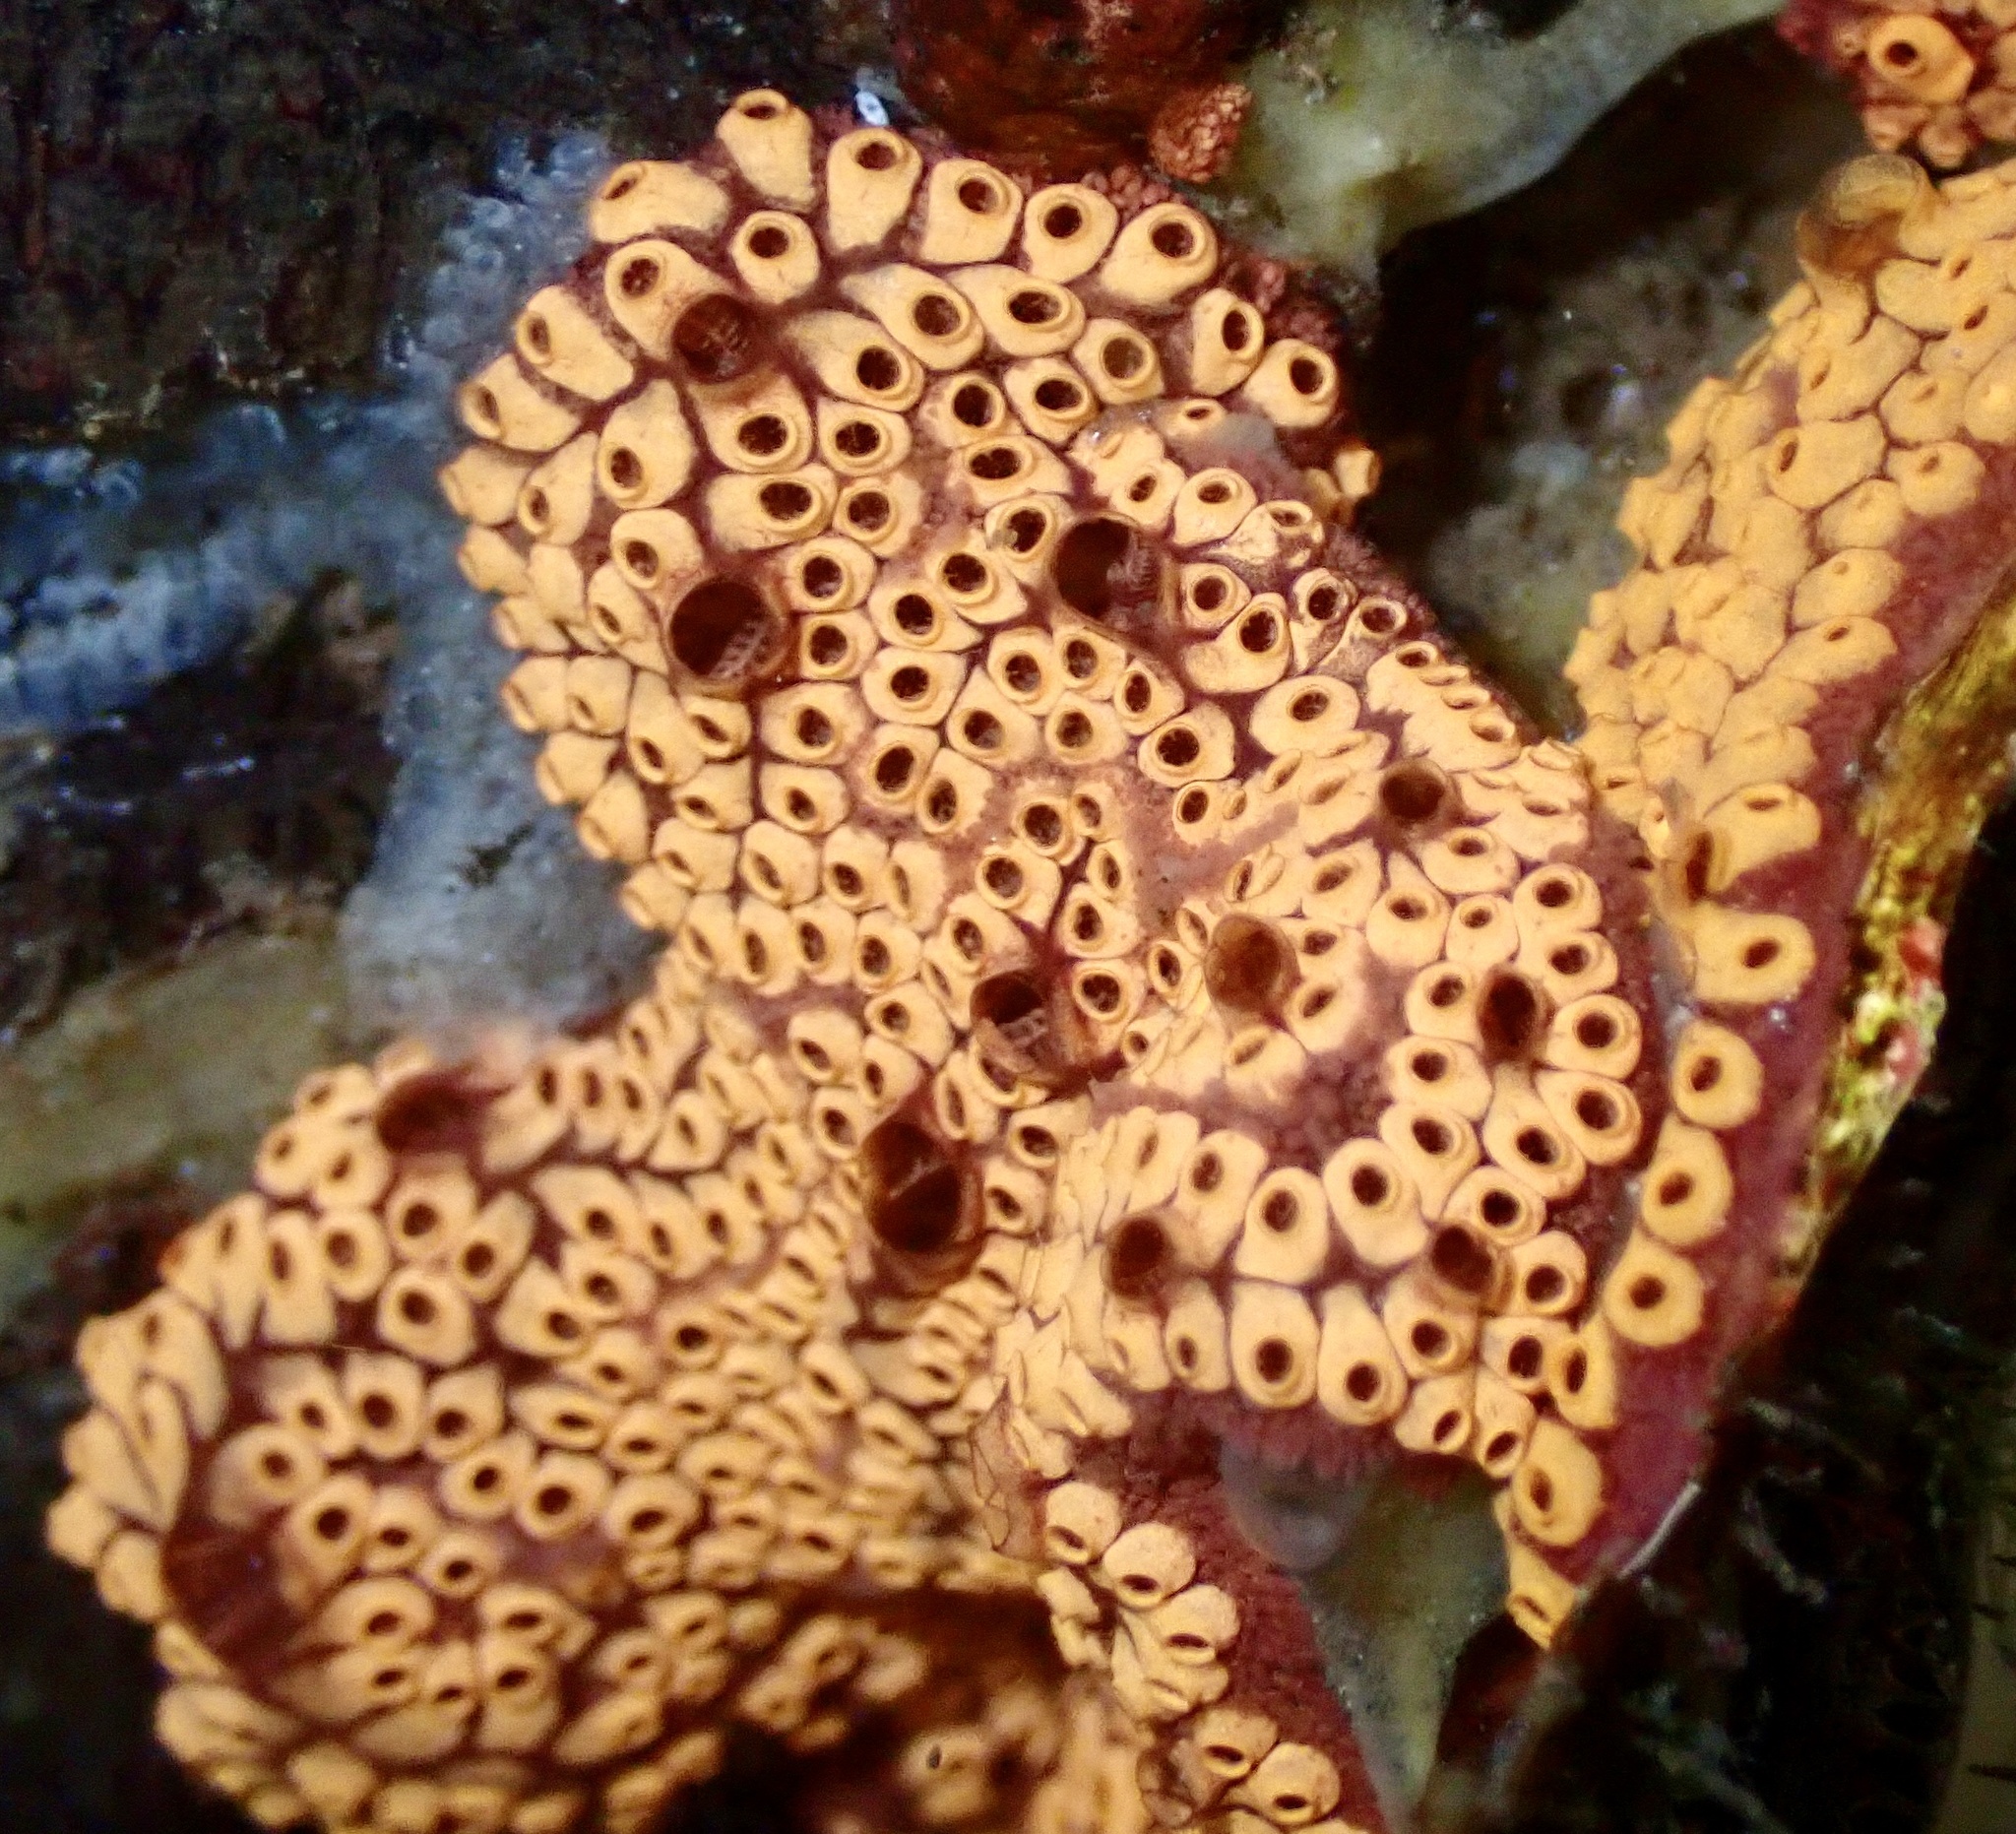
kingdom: Animalia
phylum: Chordata
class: Ascidiacea
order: Stolidobranchia
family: Styelidae
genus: Botrylloides
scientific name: Botrylloides diegensis
